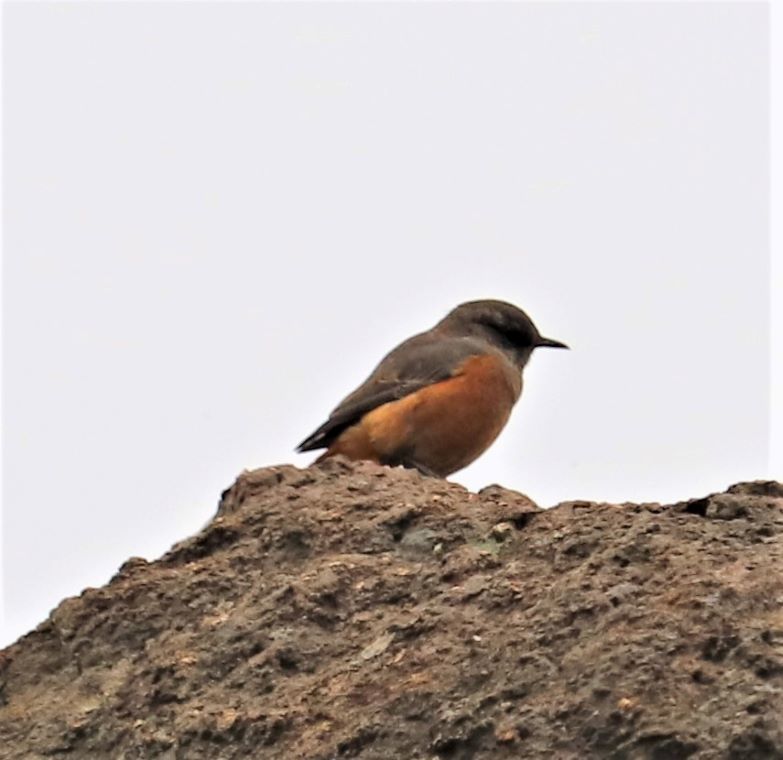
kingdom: Animalia
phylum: Chordata
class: Aves
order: Passeriformes
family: Muscicapidae
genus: Monticola
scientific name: Monticola rupestris
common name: Cape rock thrush
